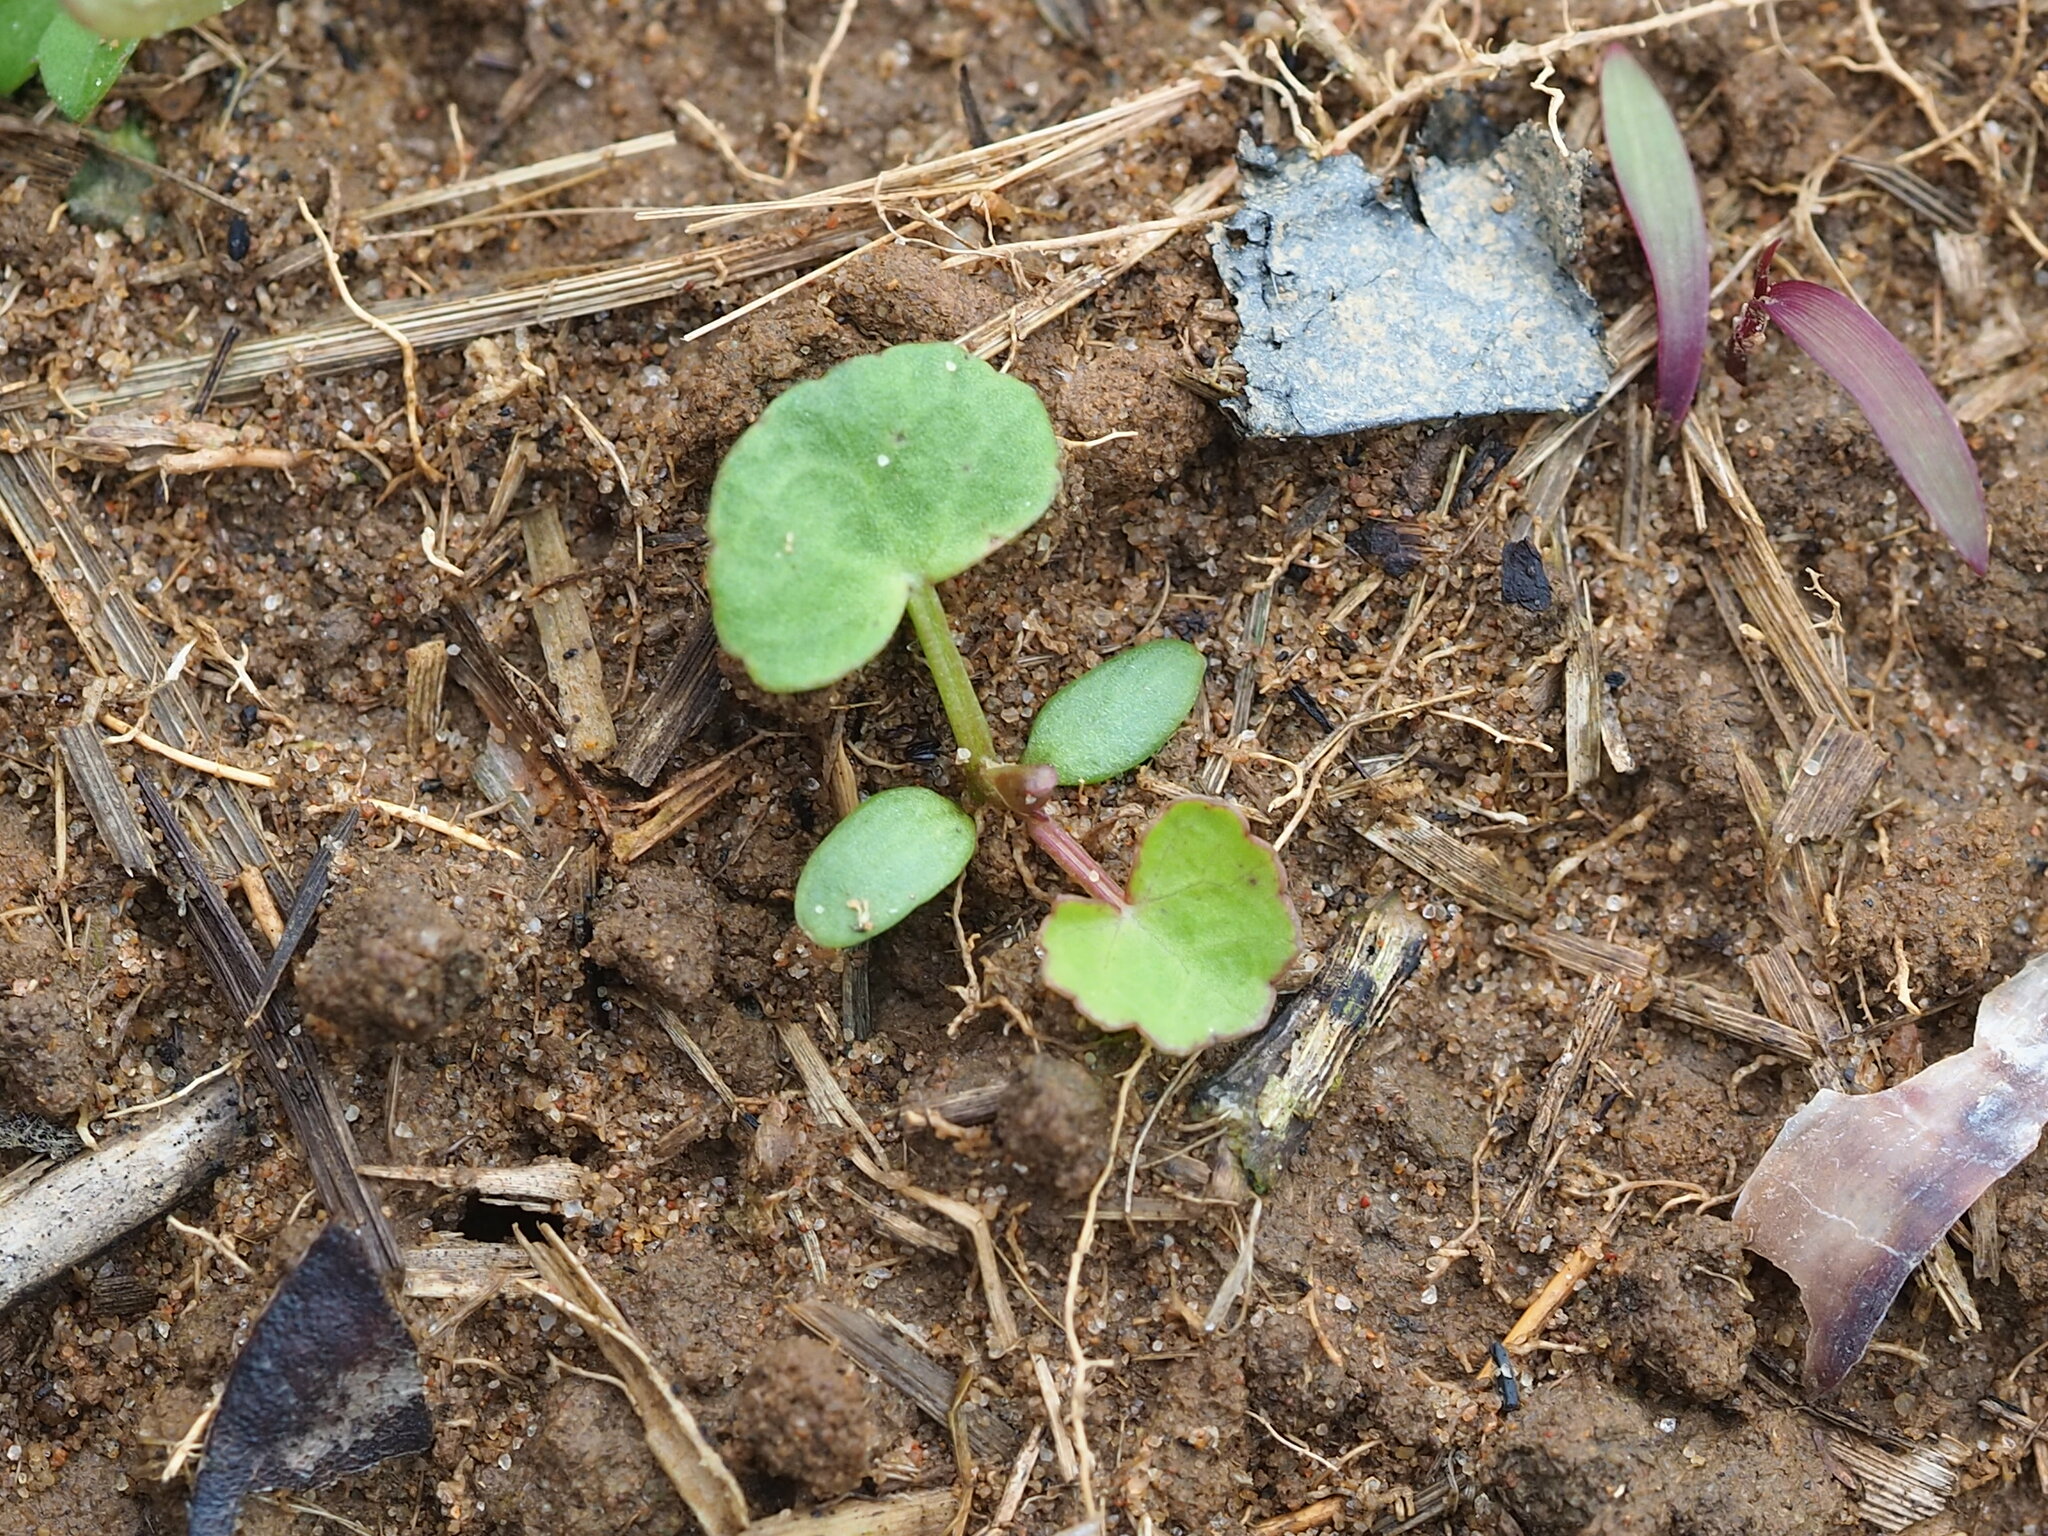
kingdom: Plantae
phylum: Tracheophyta
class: Magnoliopsida
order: Apiales
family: Apiaceae
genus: Centella
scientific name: Centella asiatica
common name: Spadeleaf
